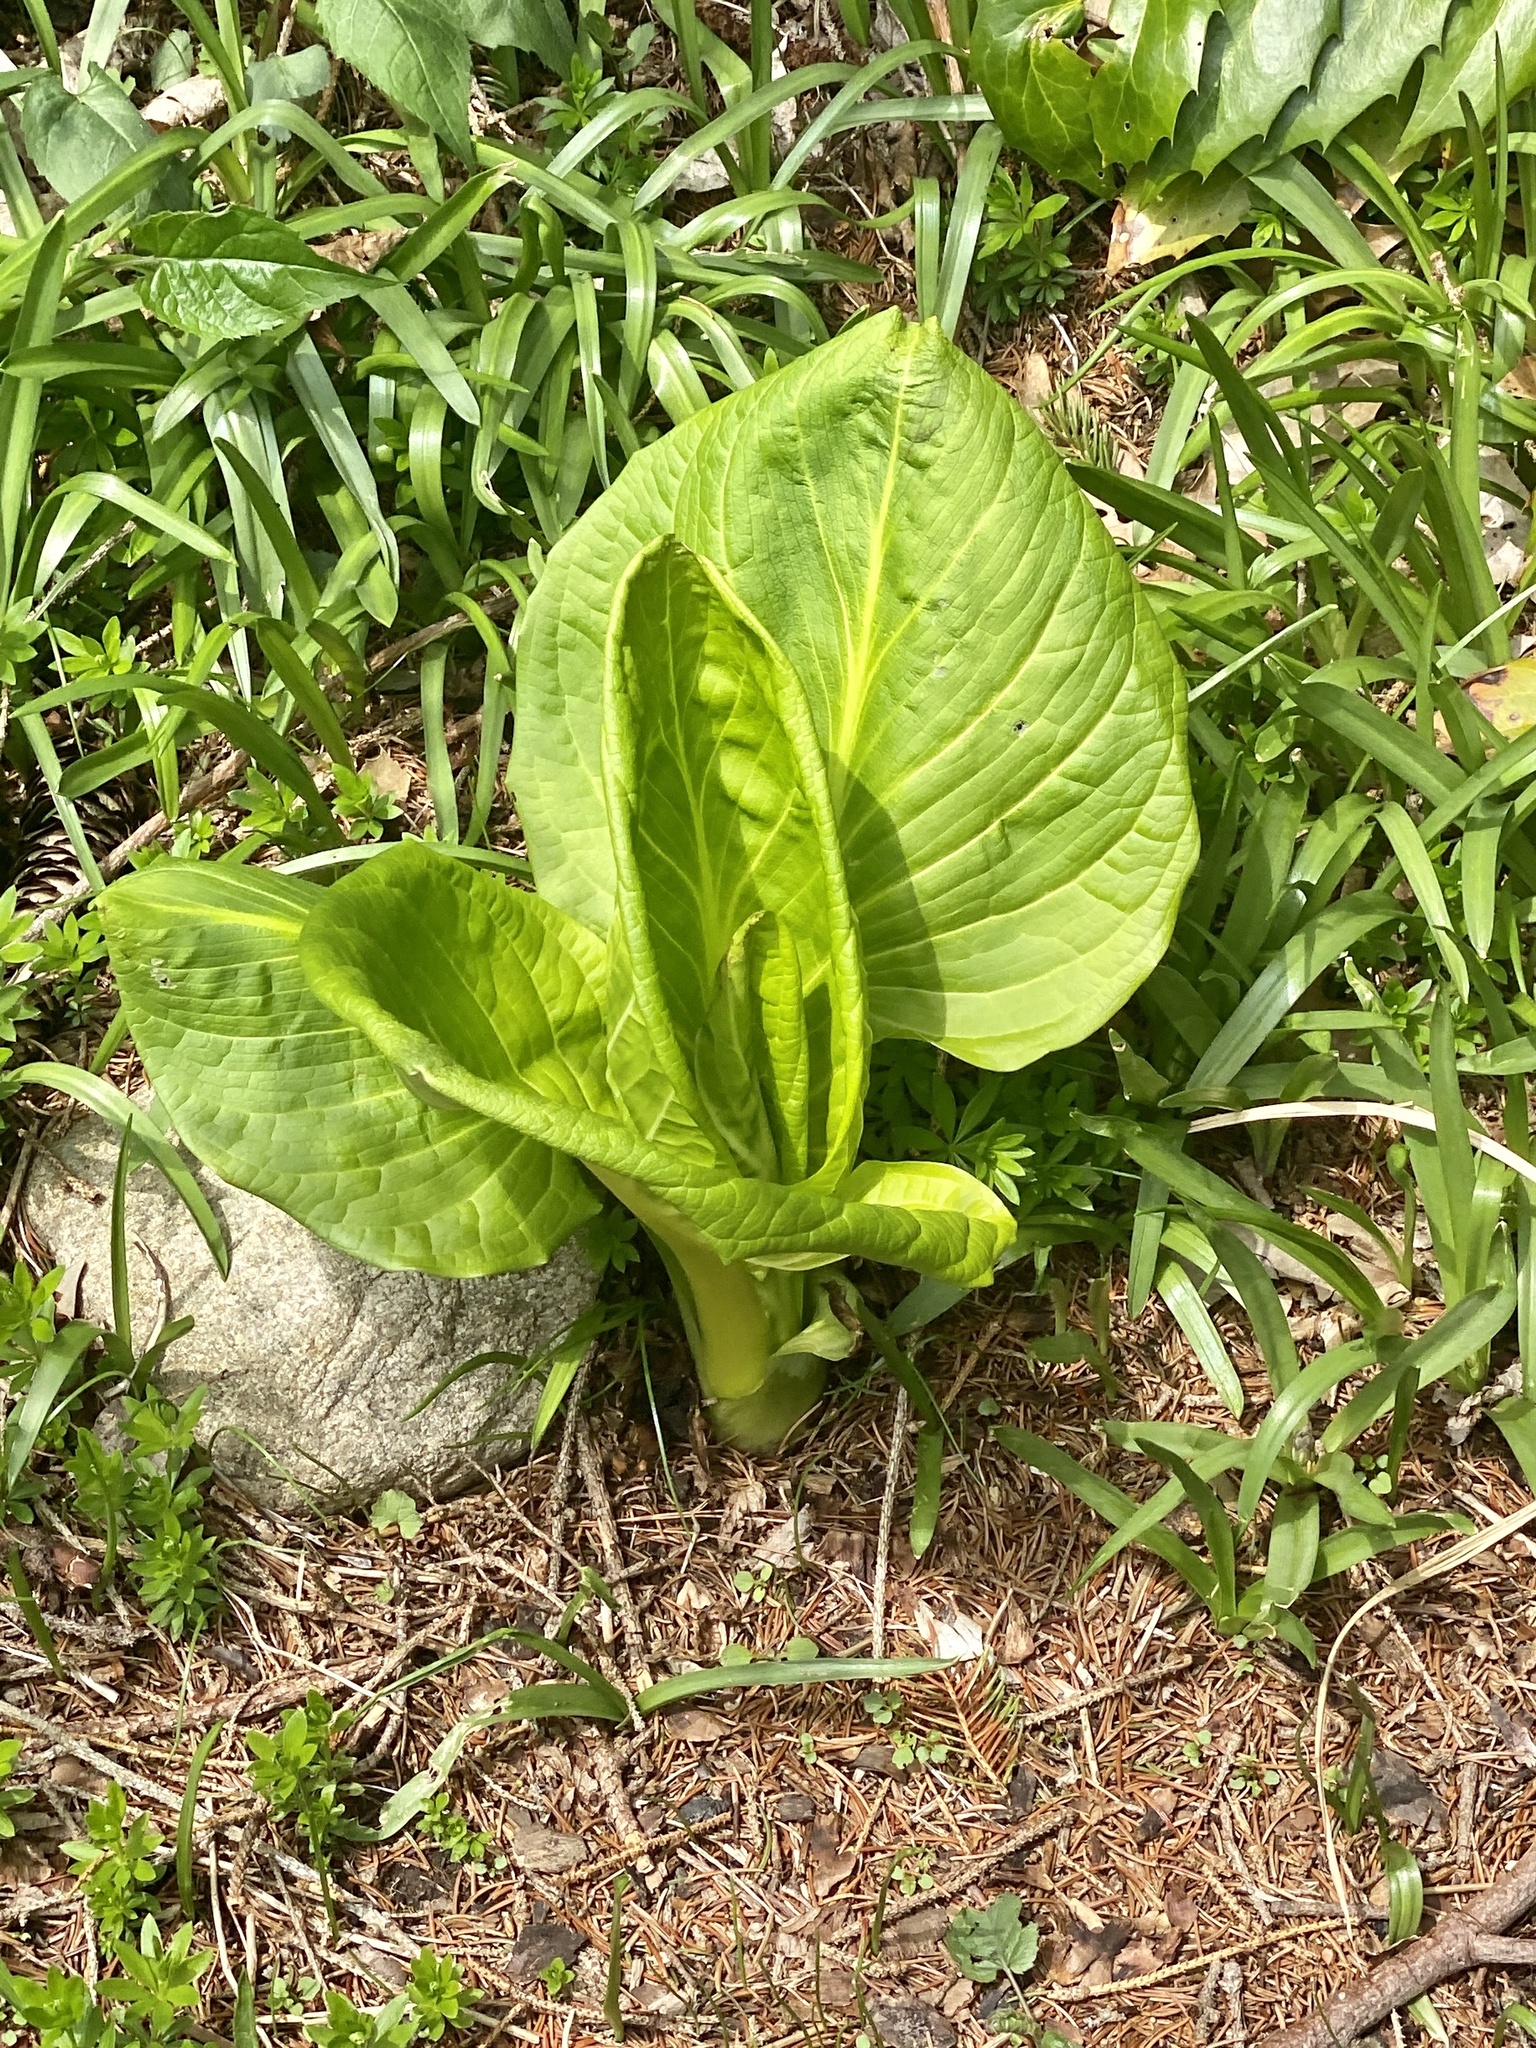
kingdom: Plantae
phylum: Tracheophyta
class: Liliopsida
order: Alismatales
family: Araceae
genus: Symplocarpus
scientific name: Symplocarpus foetidus
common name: Eastern skunk cabbage
